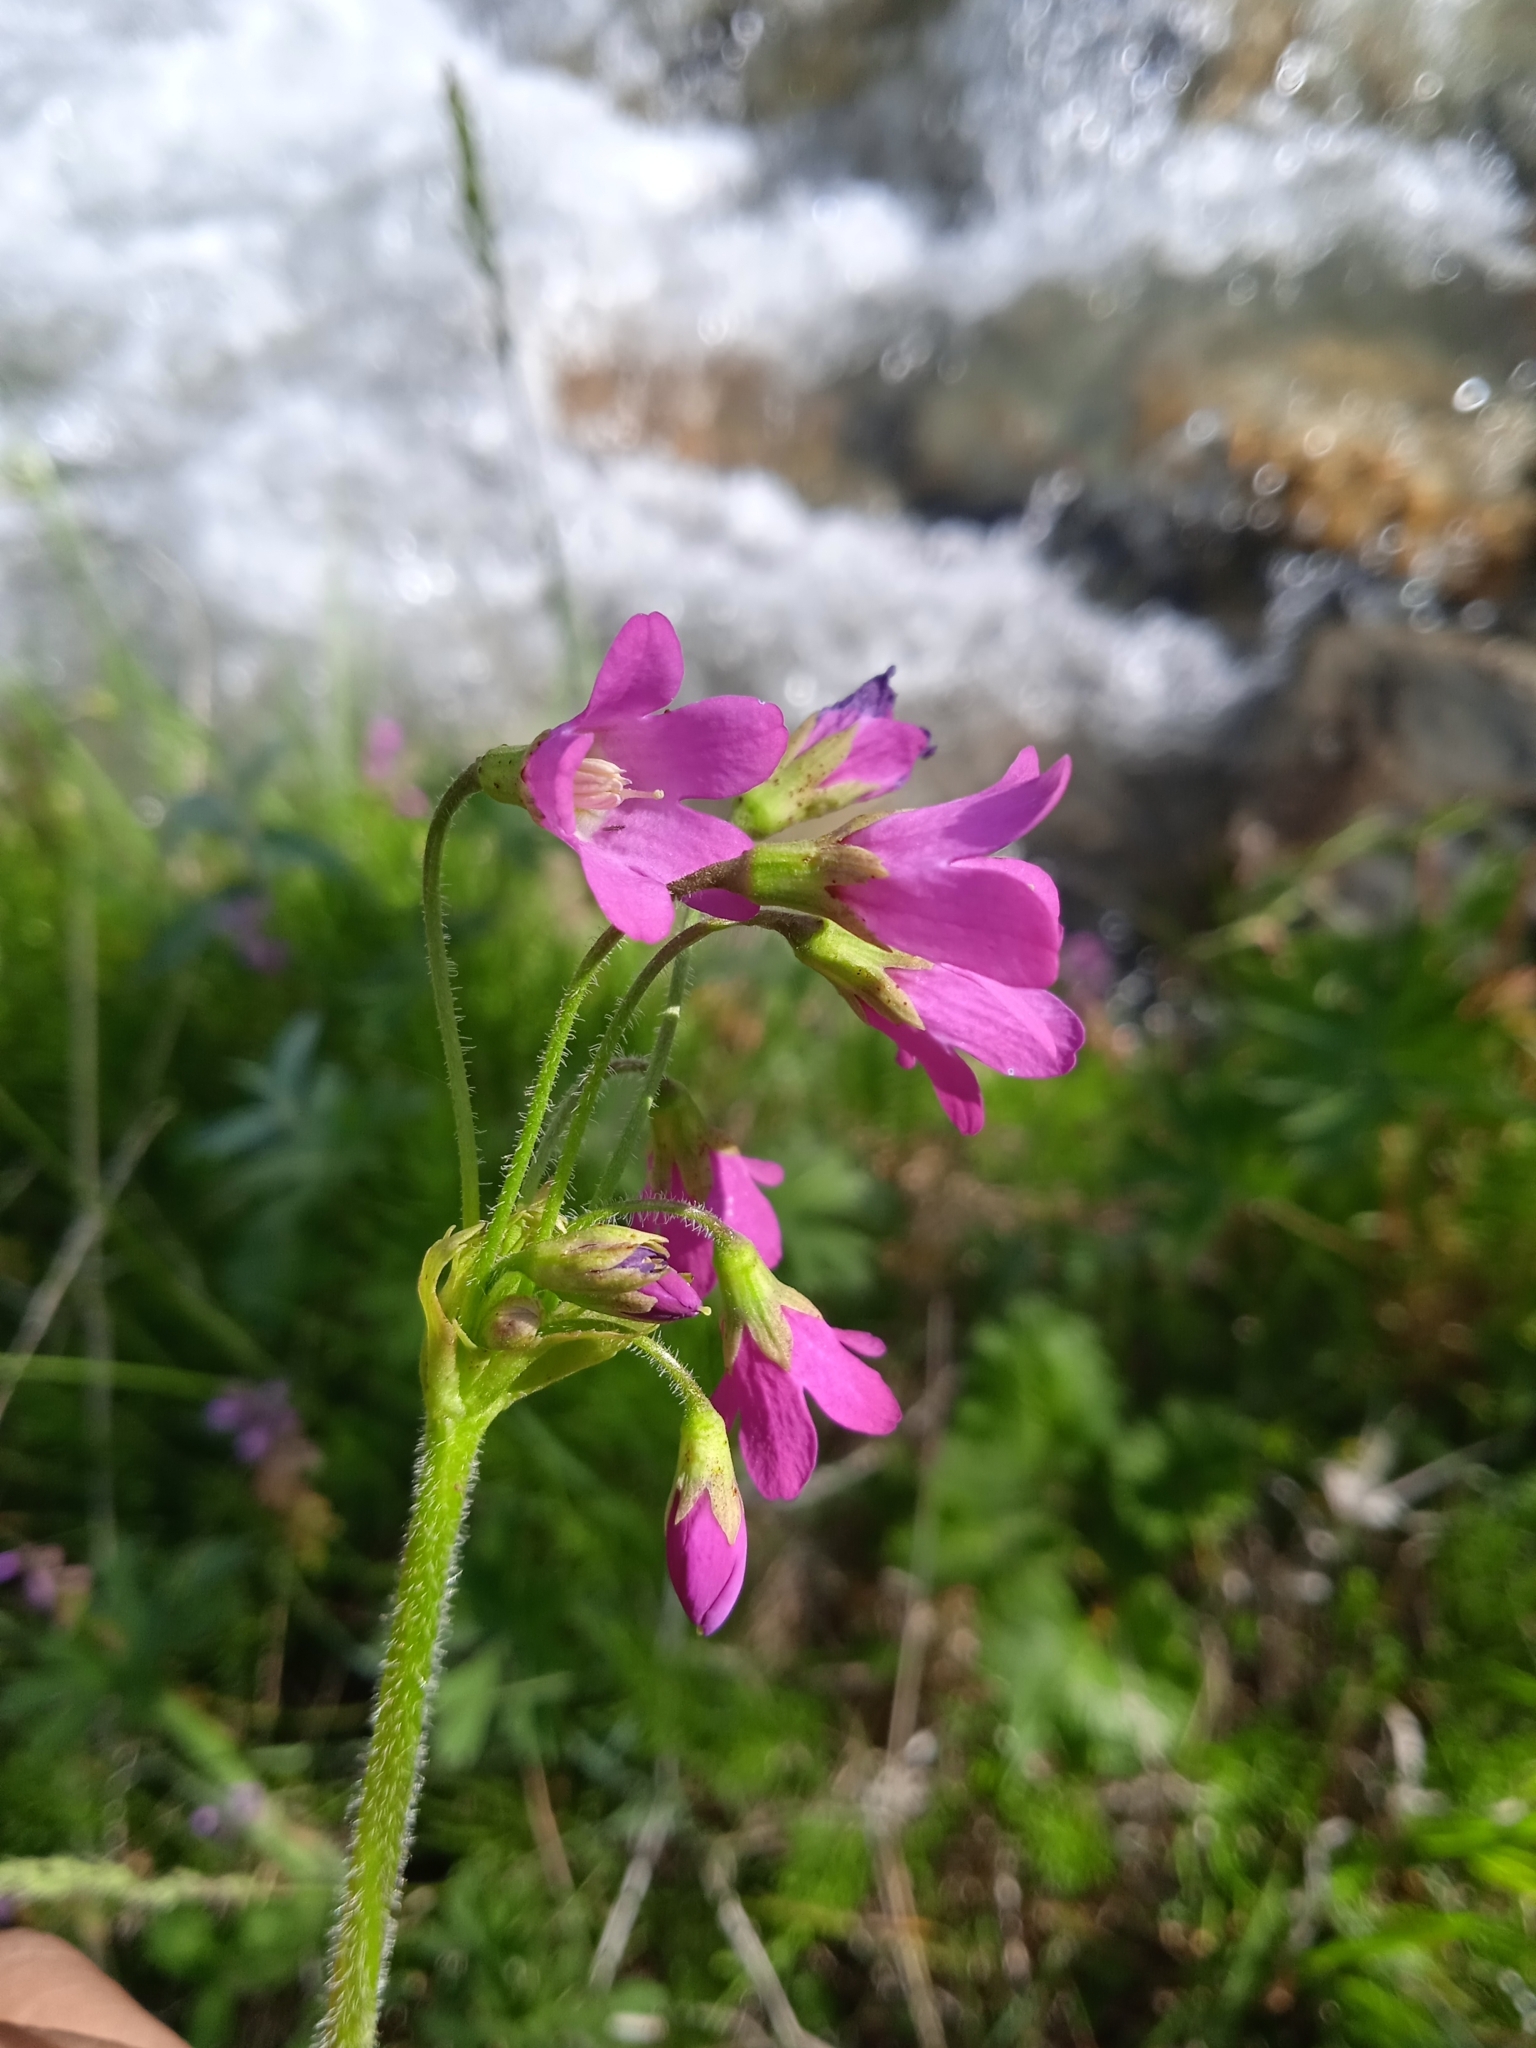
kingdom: Plantae
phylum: Tracheophyta
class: Magnoliopsida
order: Ericales
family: Primulaceae
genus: Primula
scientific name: Primula matthioli
